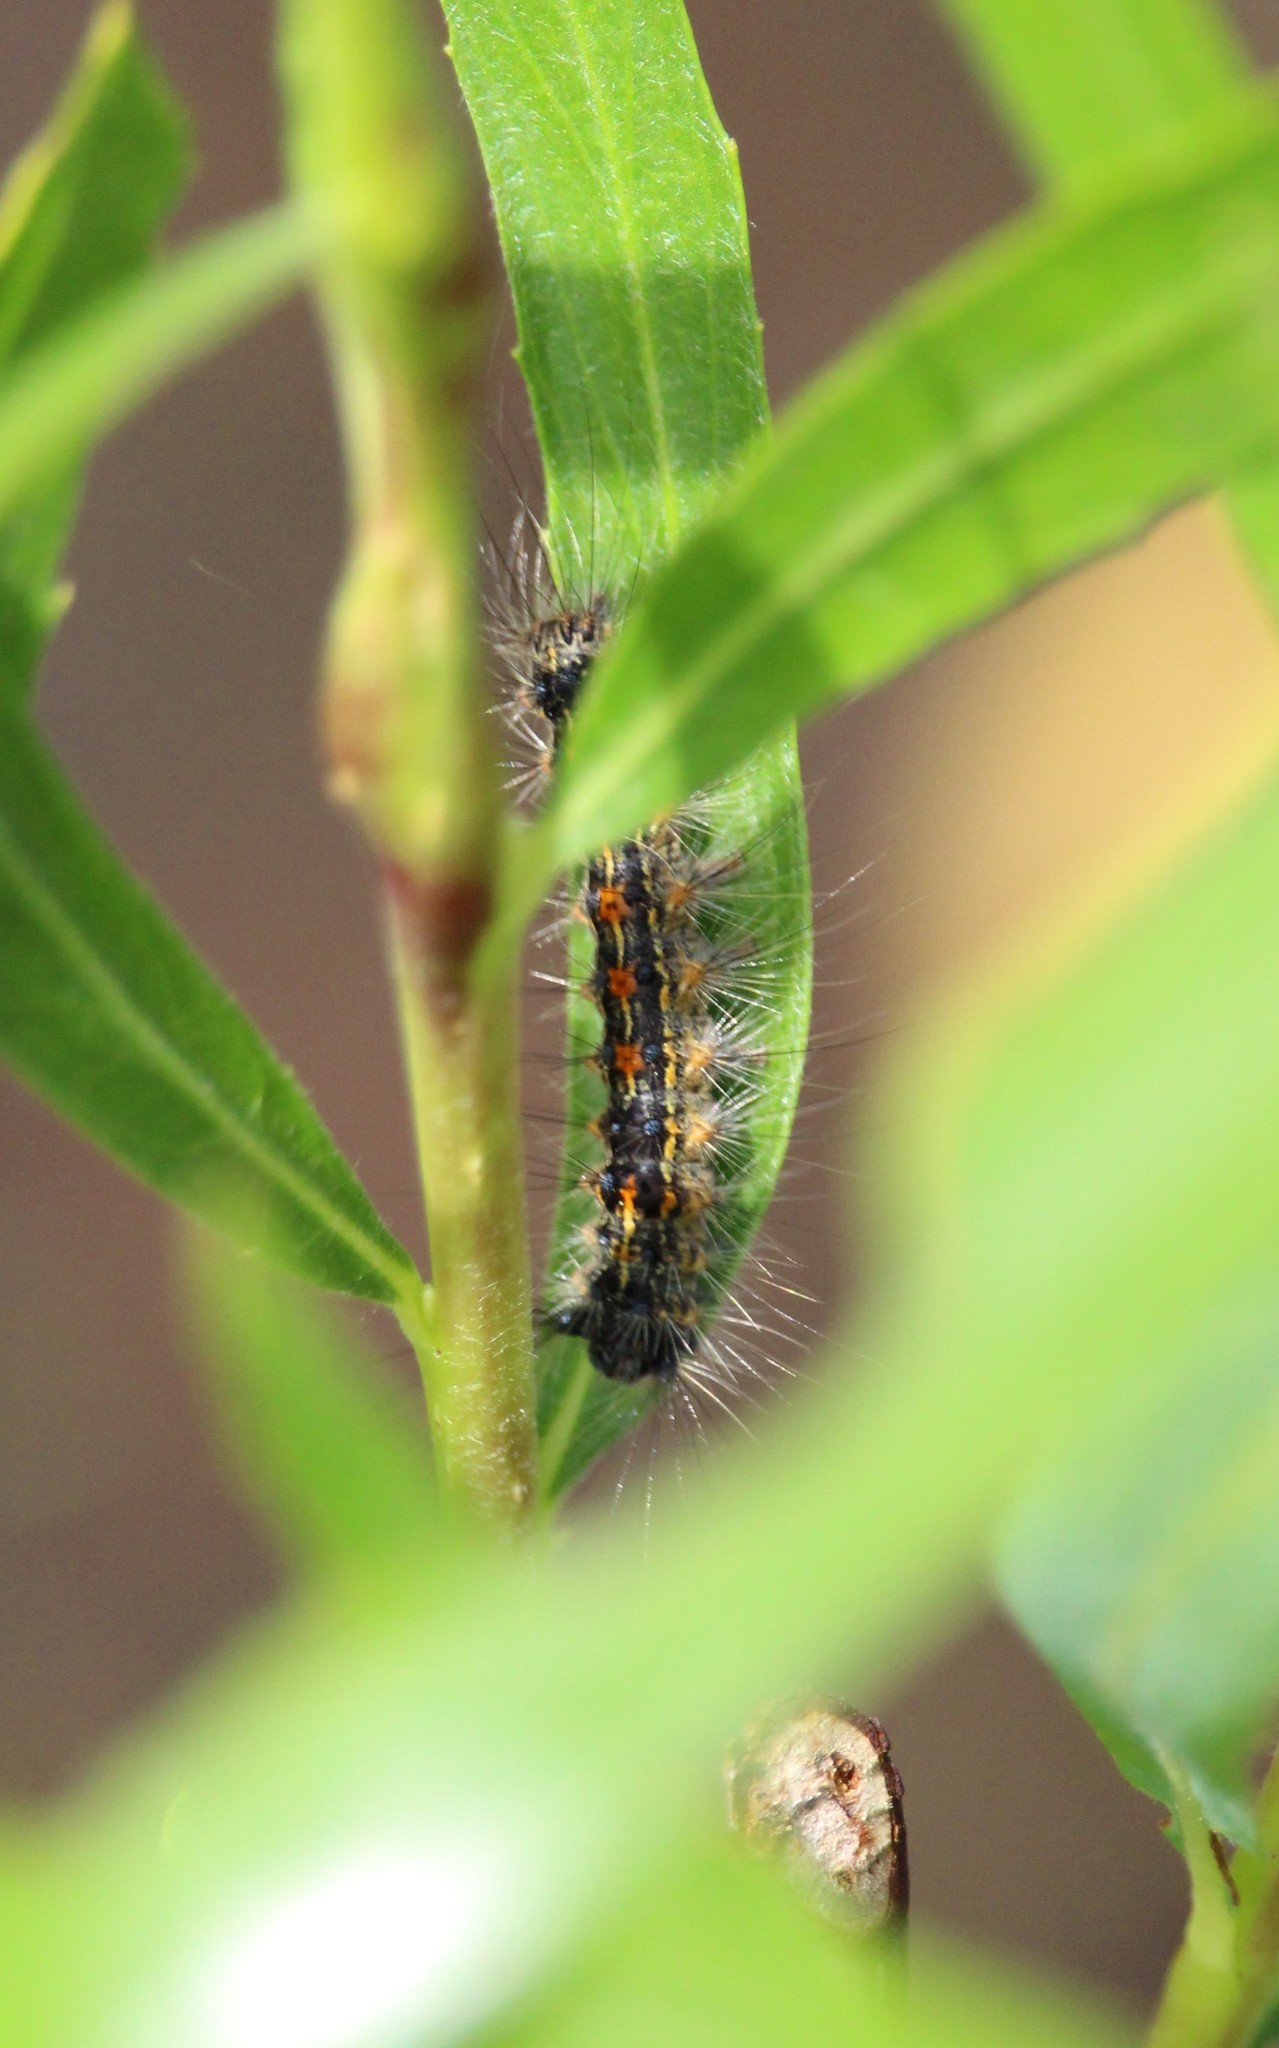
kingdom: Animalia
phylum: Arthropoda
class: Insecta
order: Lepidoptera
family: Erebidae
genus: Lymantria
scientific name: Lymantria dispar
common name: Gypsy moth
